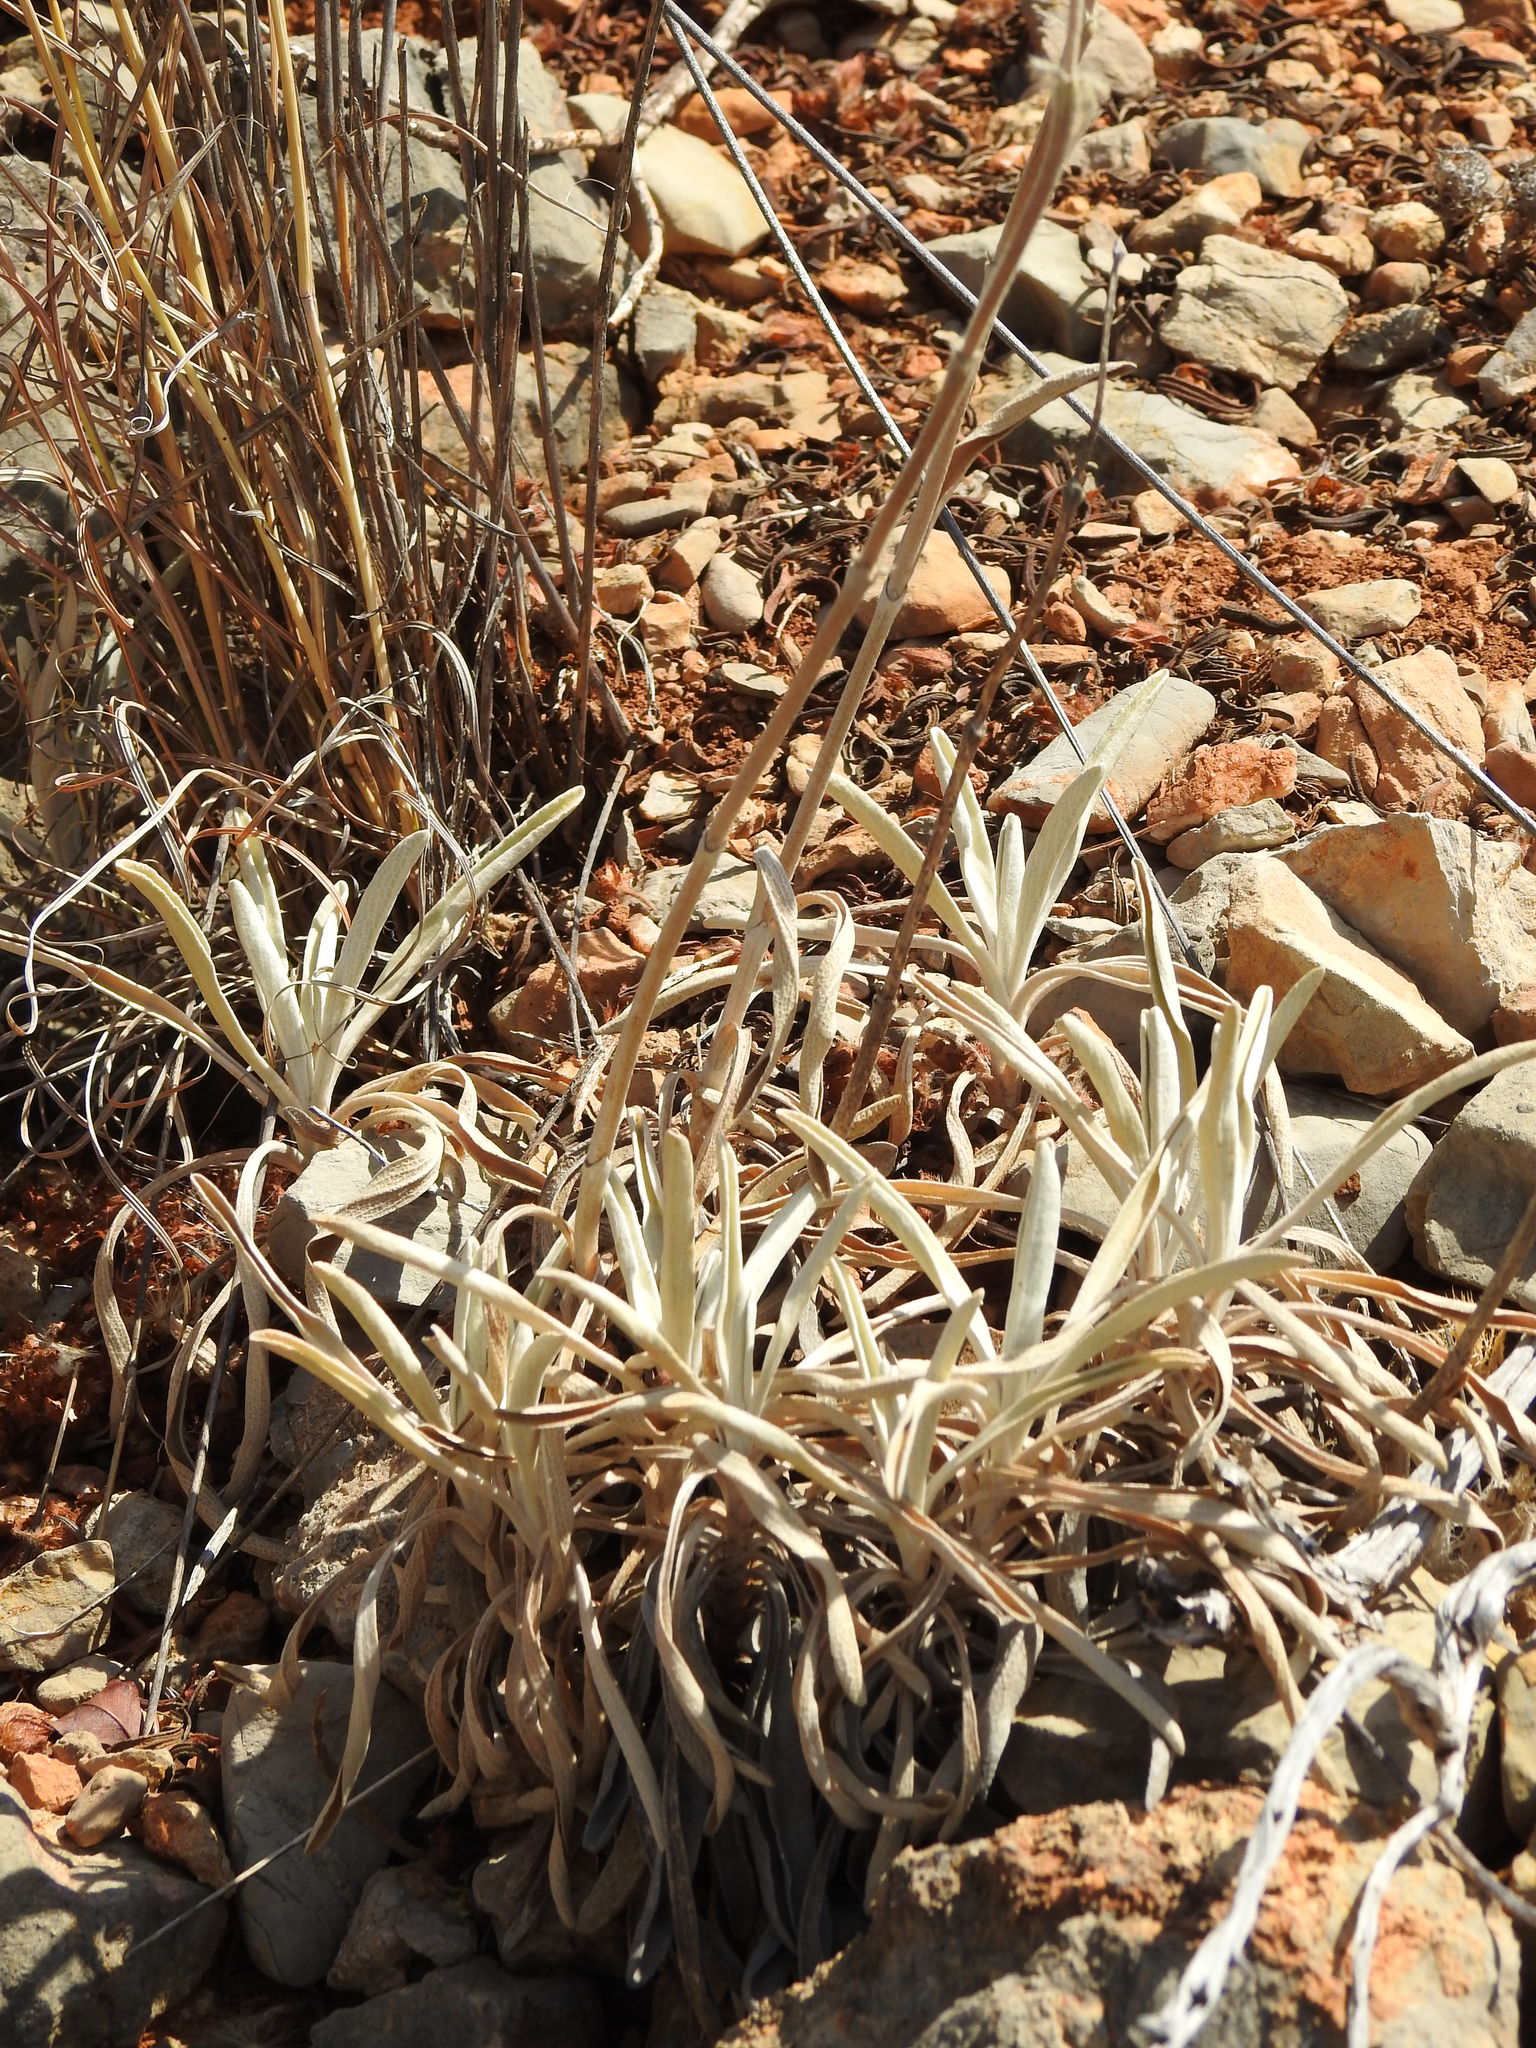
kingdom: Plantae
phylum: Tracheophyta
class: Magnoliopsida
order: Lamiales
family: Lamiaceae
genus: Phlomis
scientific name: Phlomis lychnitis
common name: Lampwickplant
